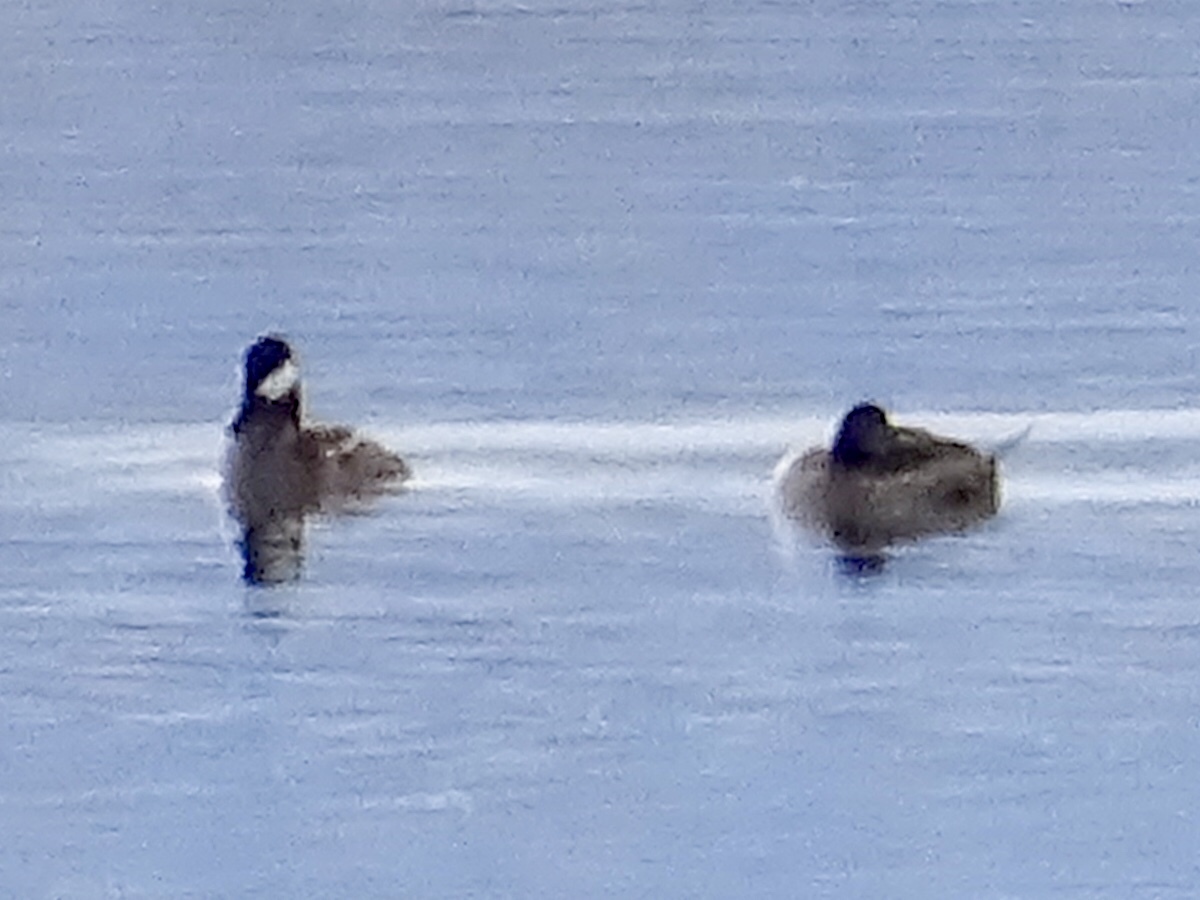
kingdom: Animalia
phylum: Chordata
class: Aves
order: Anseriformes
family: Anatidae
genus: Oxyura
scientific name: Oxyura jamaicensis
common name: Ruddy duck
